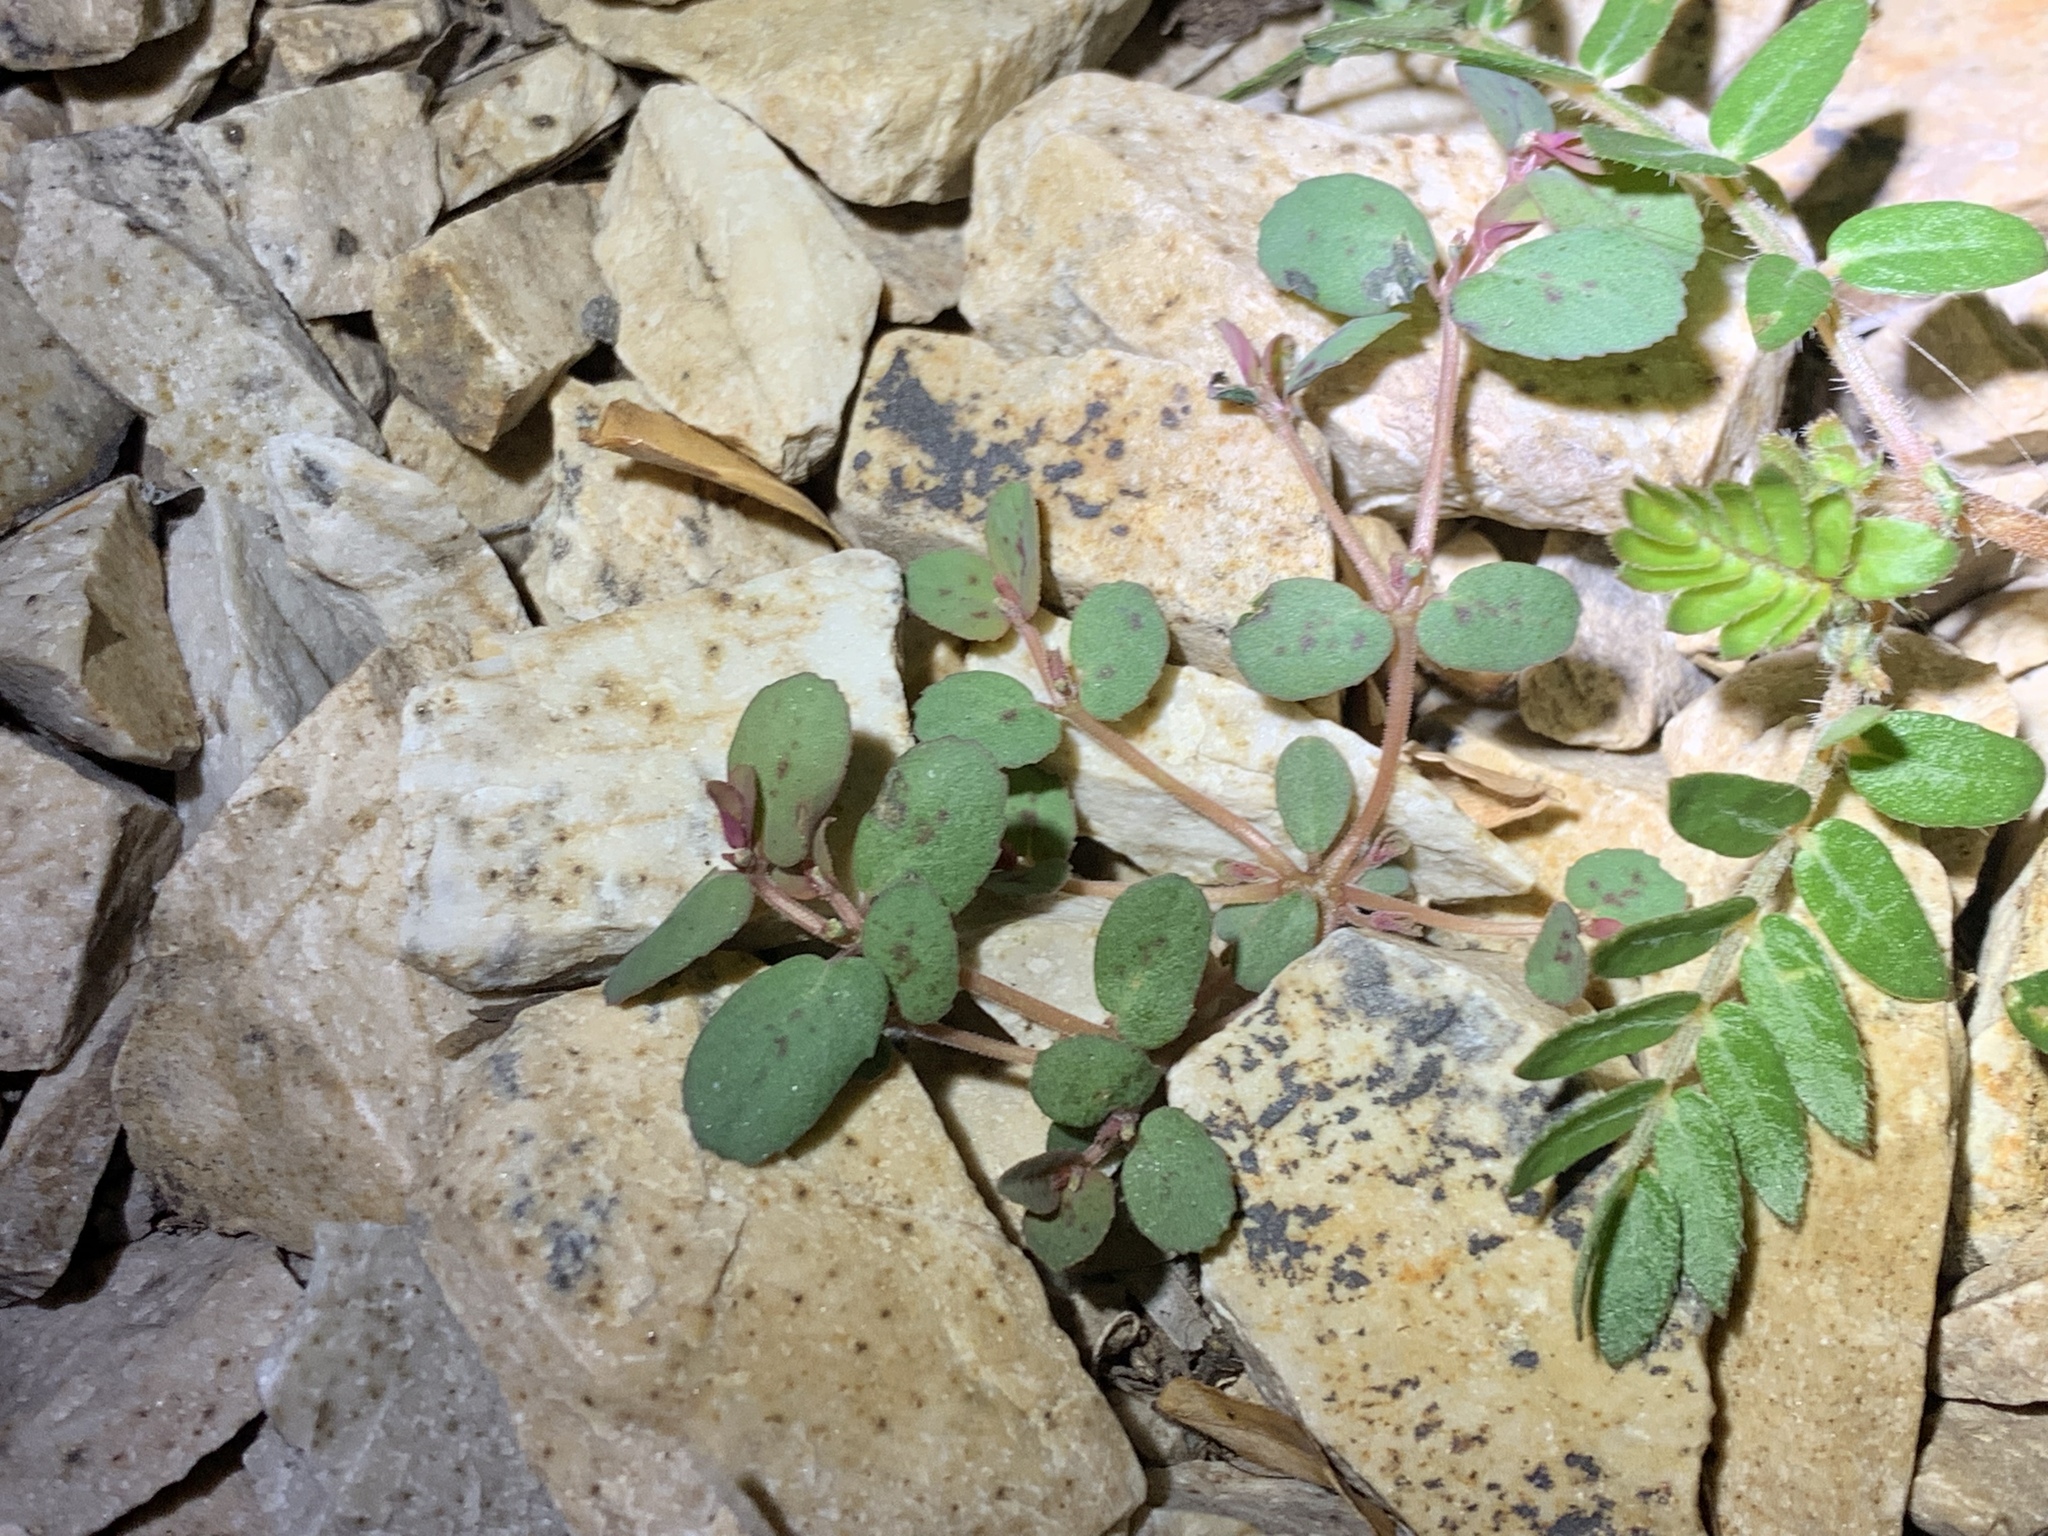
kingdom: Plantae
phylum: Tracheophyta
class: Magnoliopsida
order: Malpighiales
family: Euphorbiaceae
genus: Euphorbia
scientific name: Euphorbia abramsiana
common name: Abram's spurge
